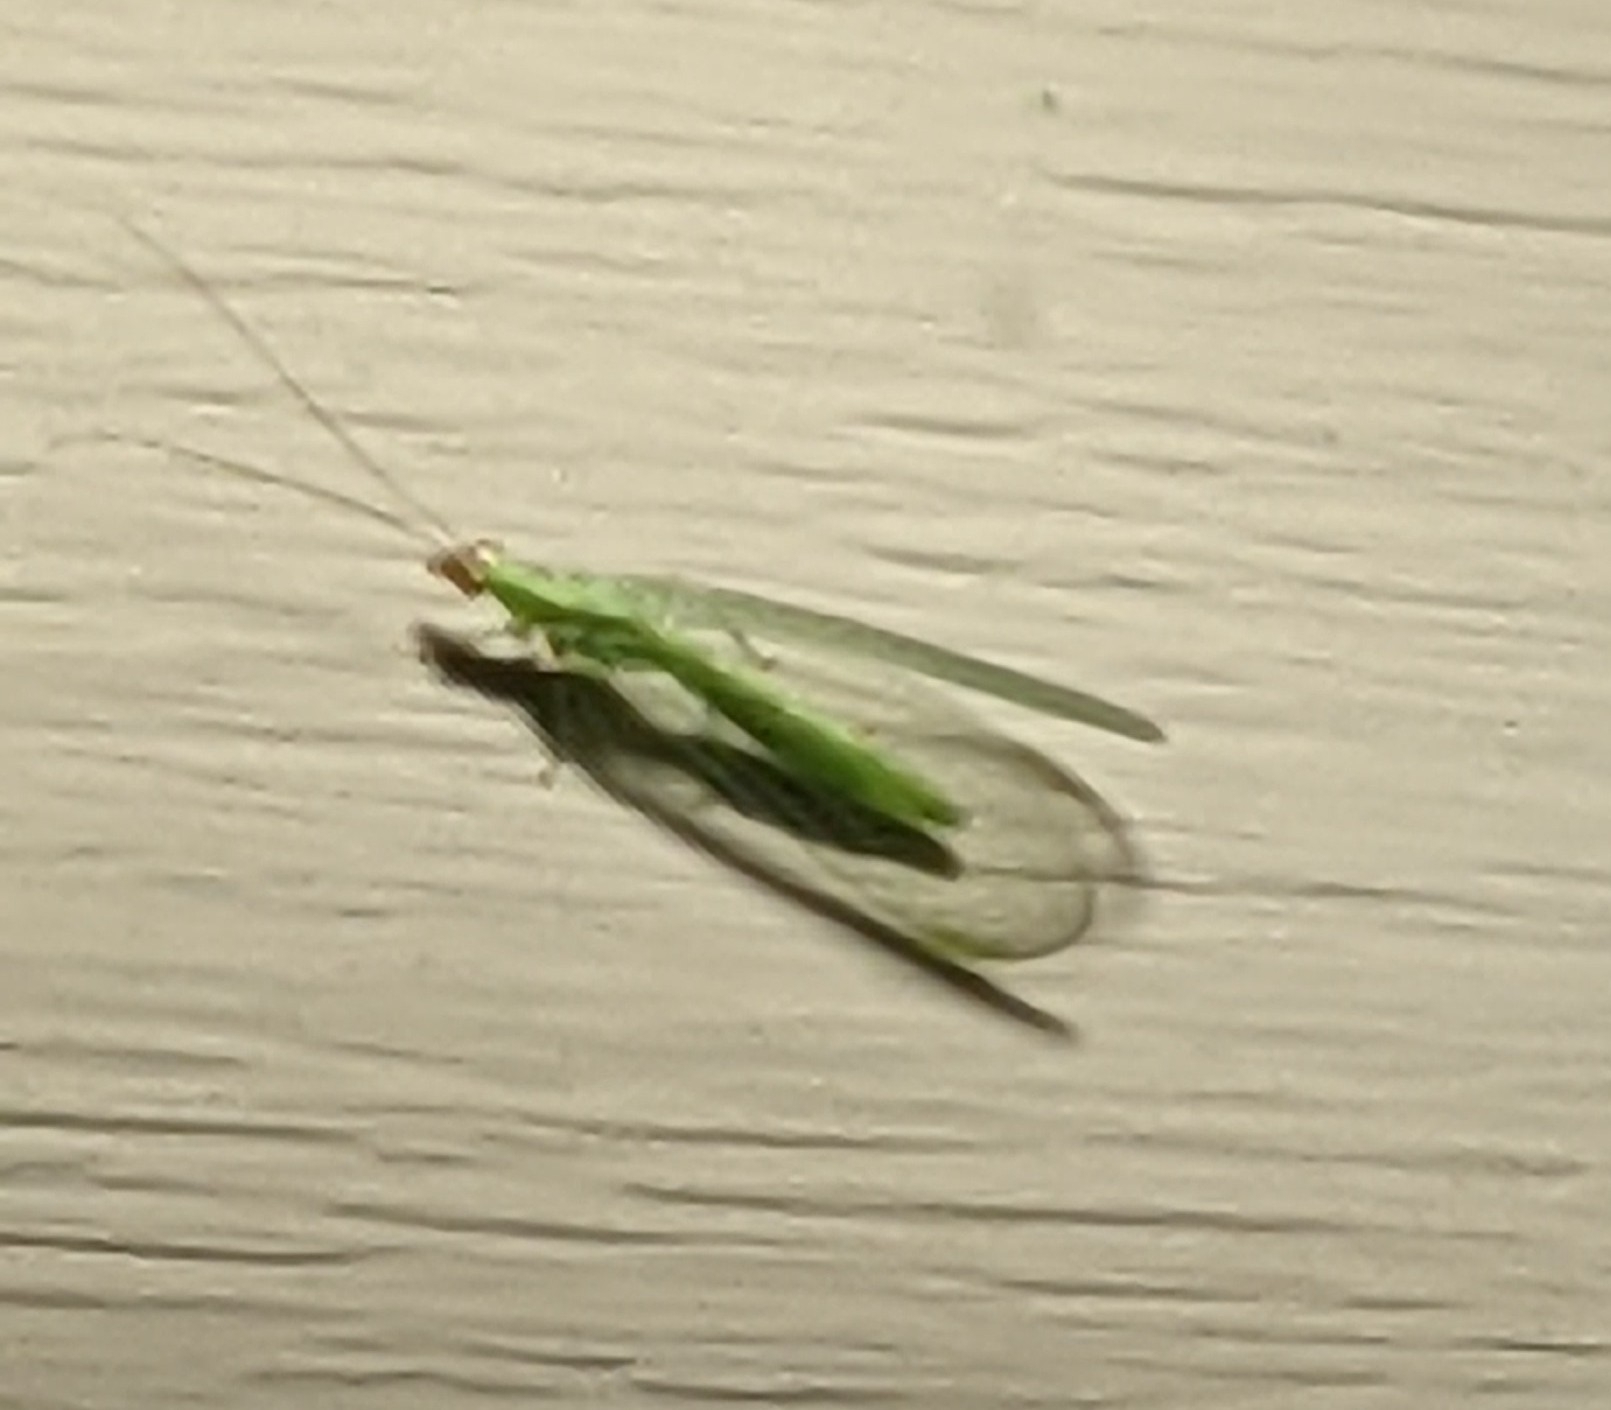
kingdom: Animalia
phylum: Arthropoda
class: Insecta
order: Neuroptera
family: Chrysopidae
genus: Chrysopa
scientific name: Chrysopa oculata
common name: Golden-eyed lacewing
